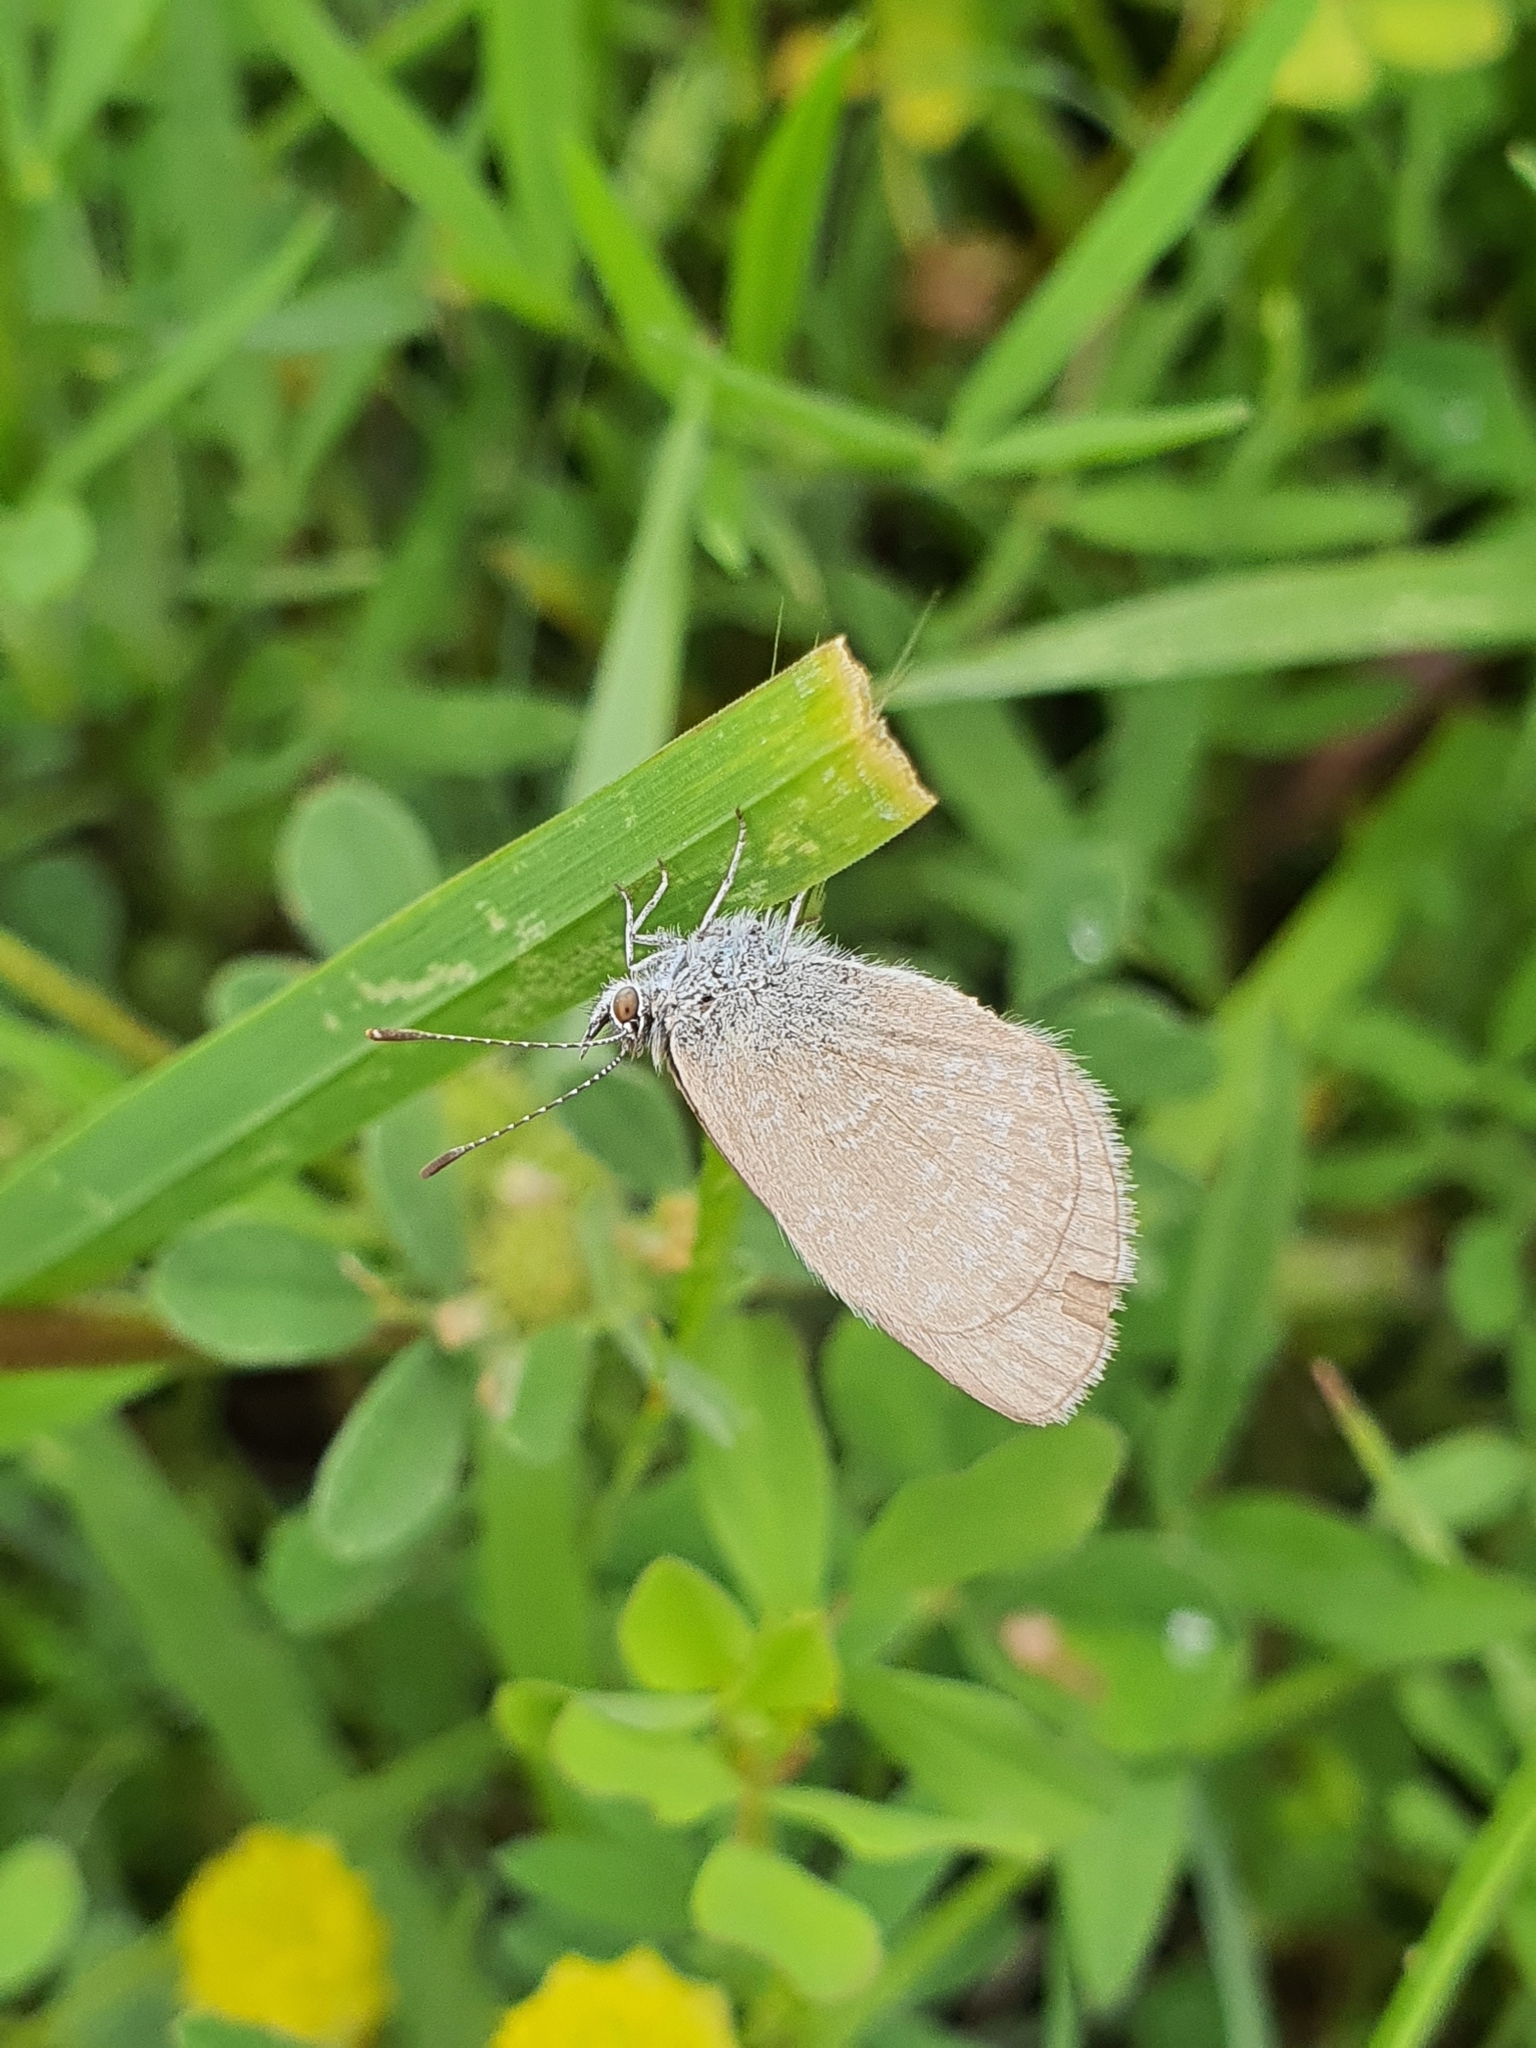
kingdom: Animalia
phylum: Arthropoda
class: Insecta
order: Lepidoptera
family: Lycaenidae
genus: Zizina
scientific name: Zizina labradus
